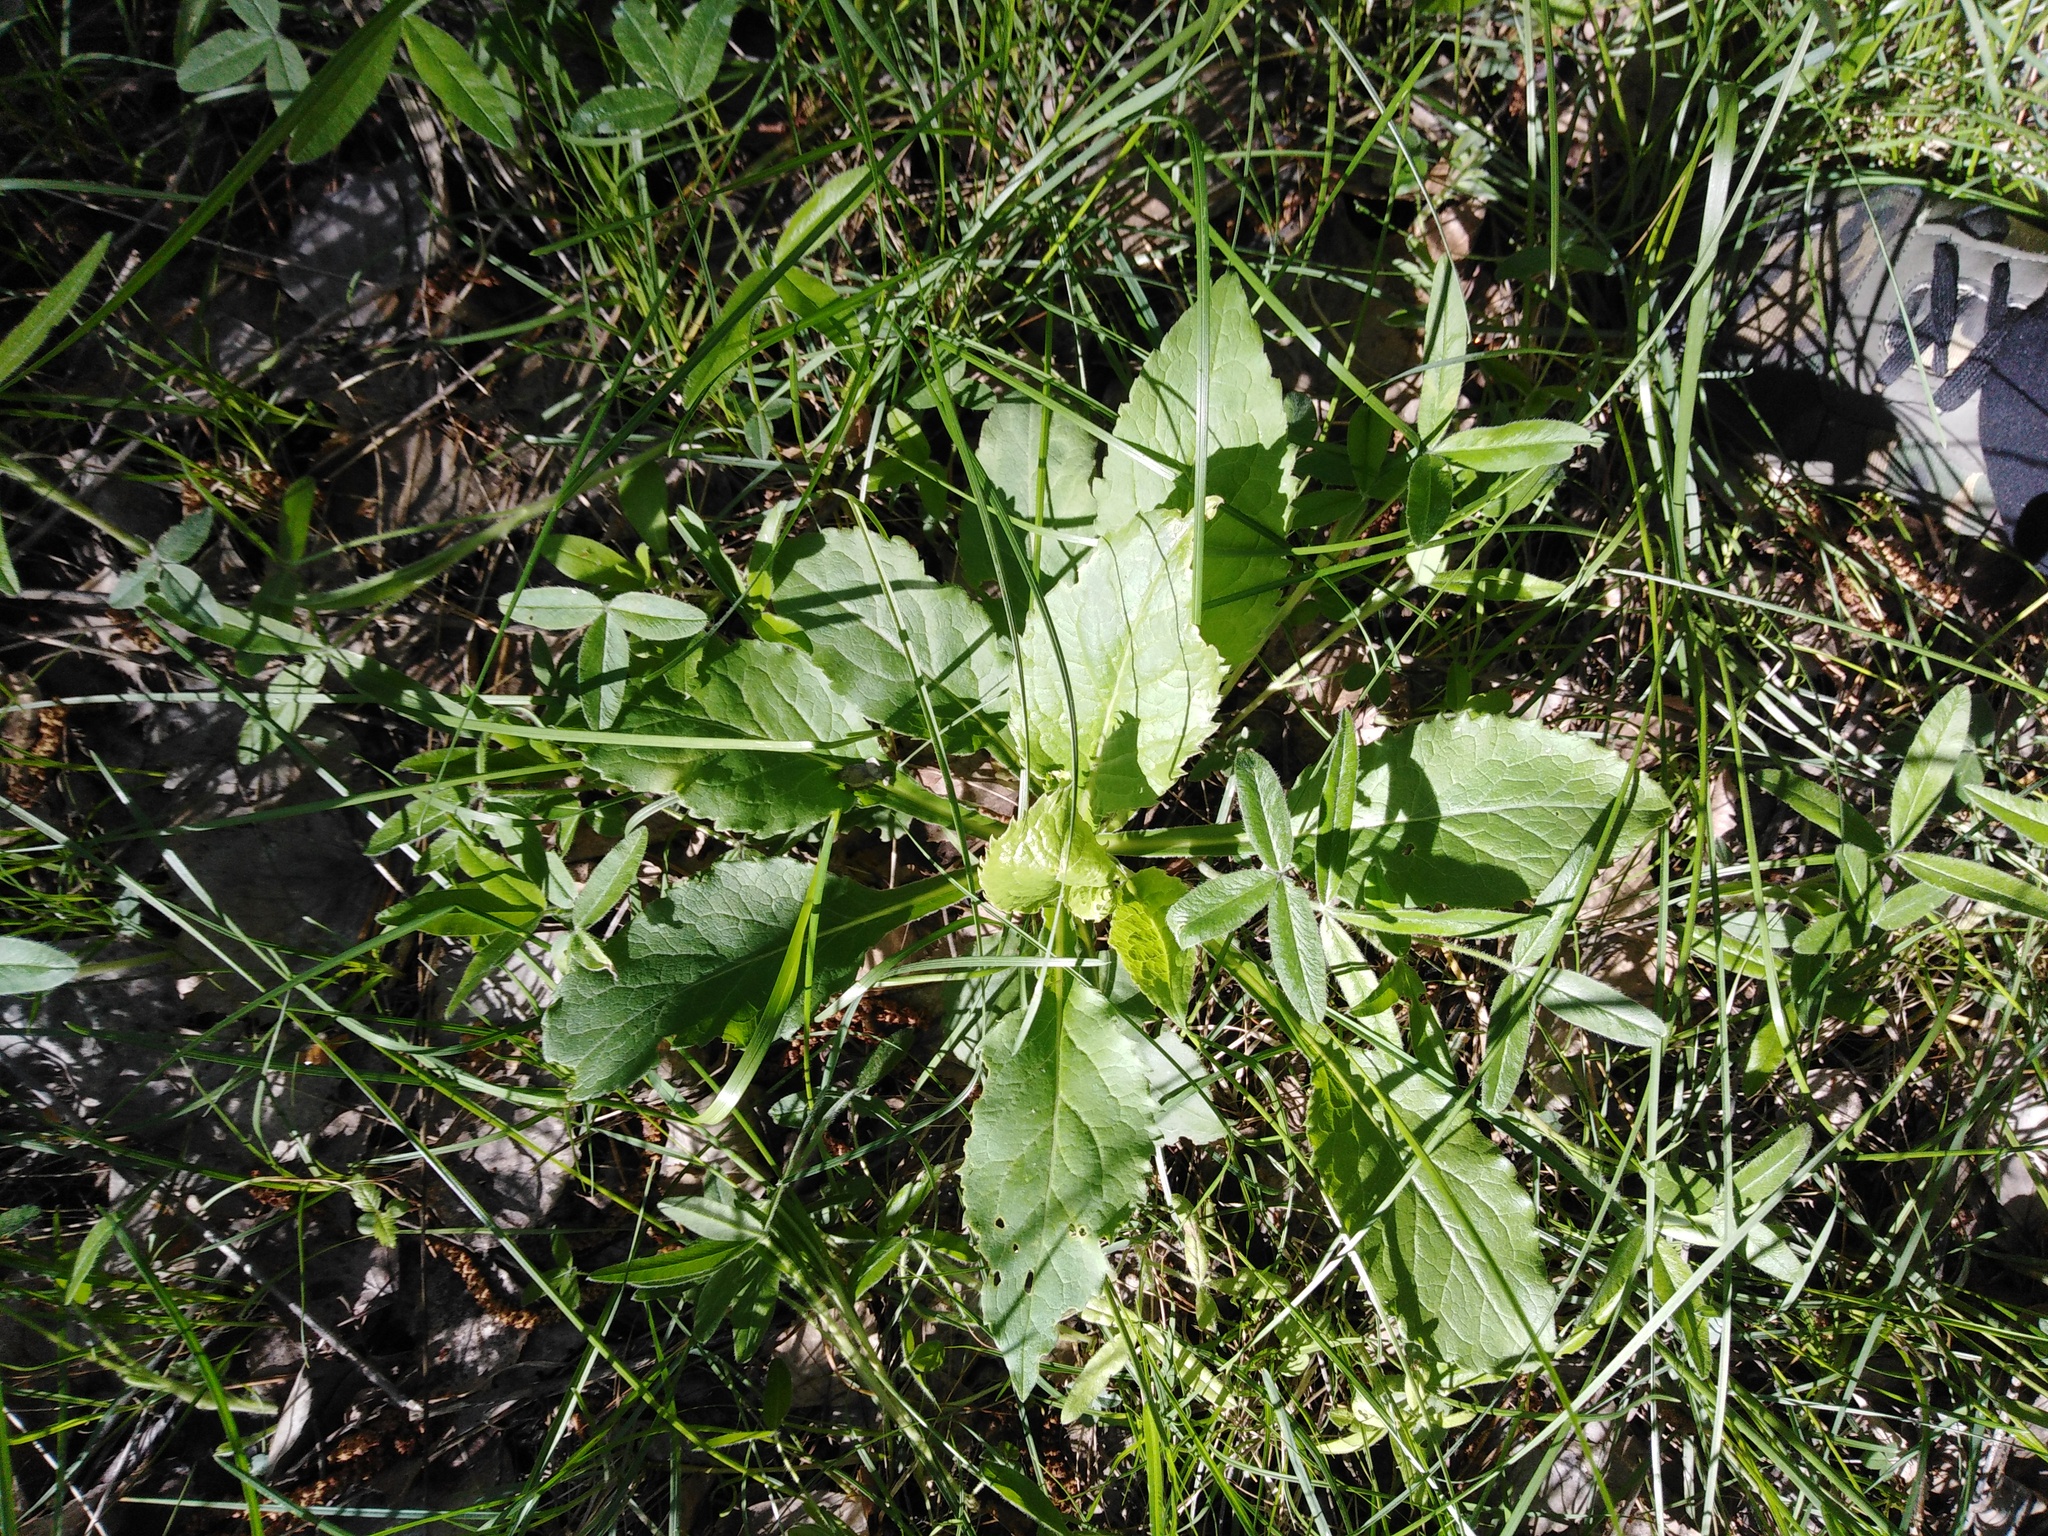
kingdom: Plantae
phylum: Tracheophyta
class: Magnoliopsida
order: Asterales
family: Asteraceae
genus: Solidago
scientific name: Solidago virgaurea
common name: Goldenrod
